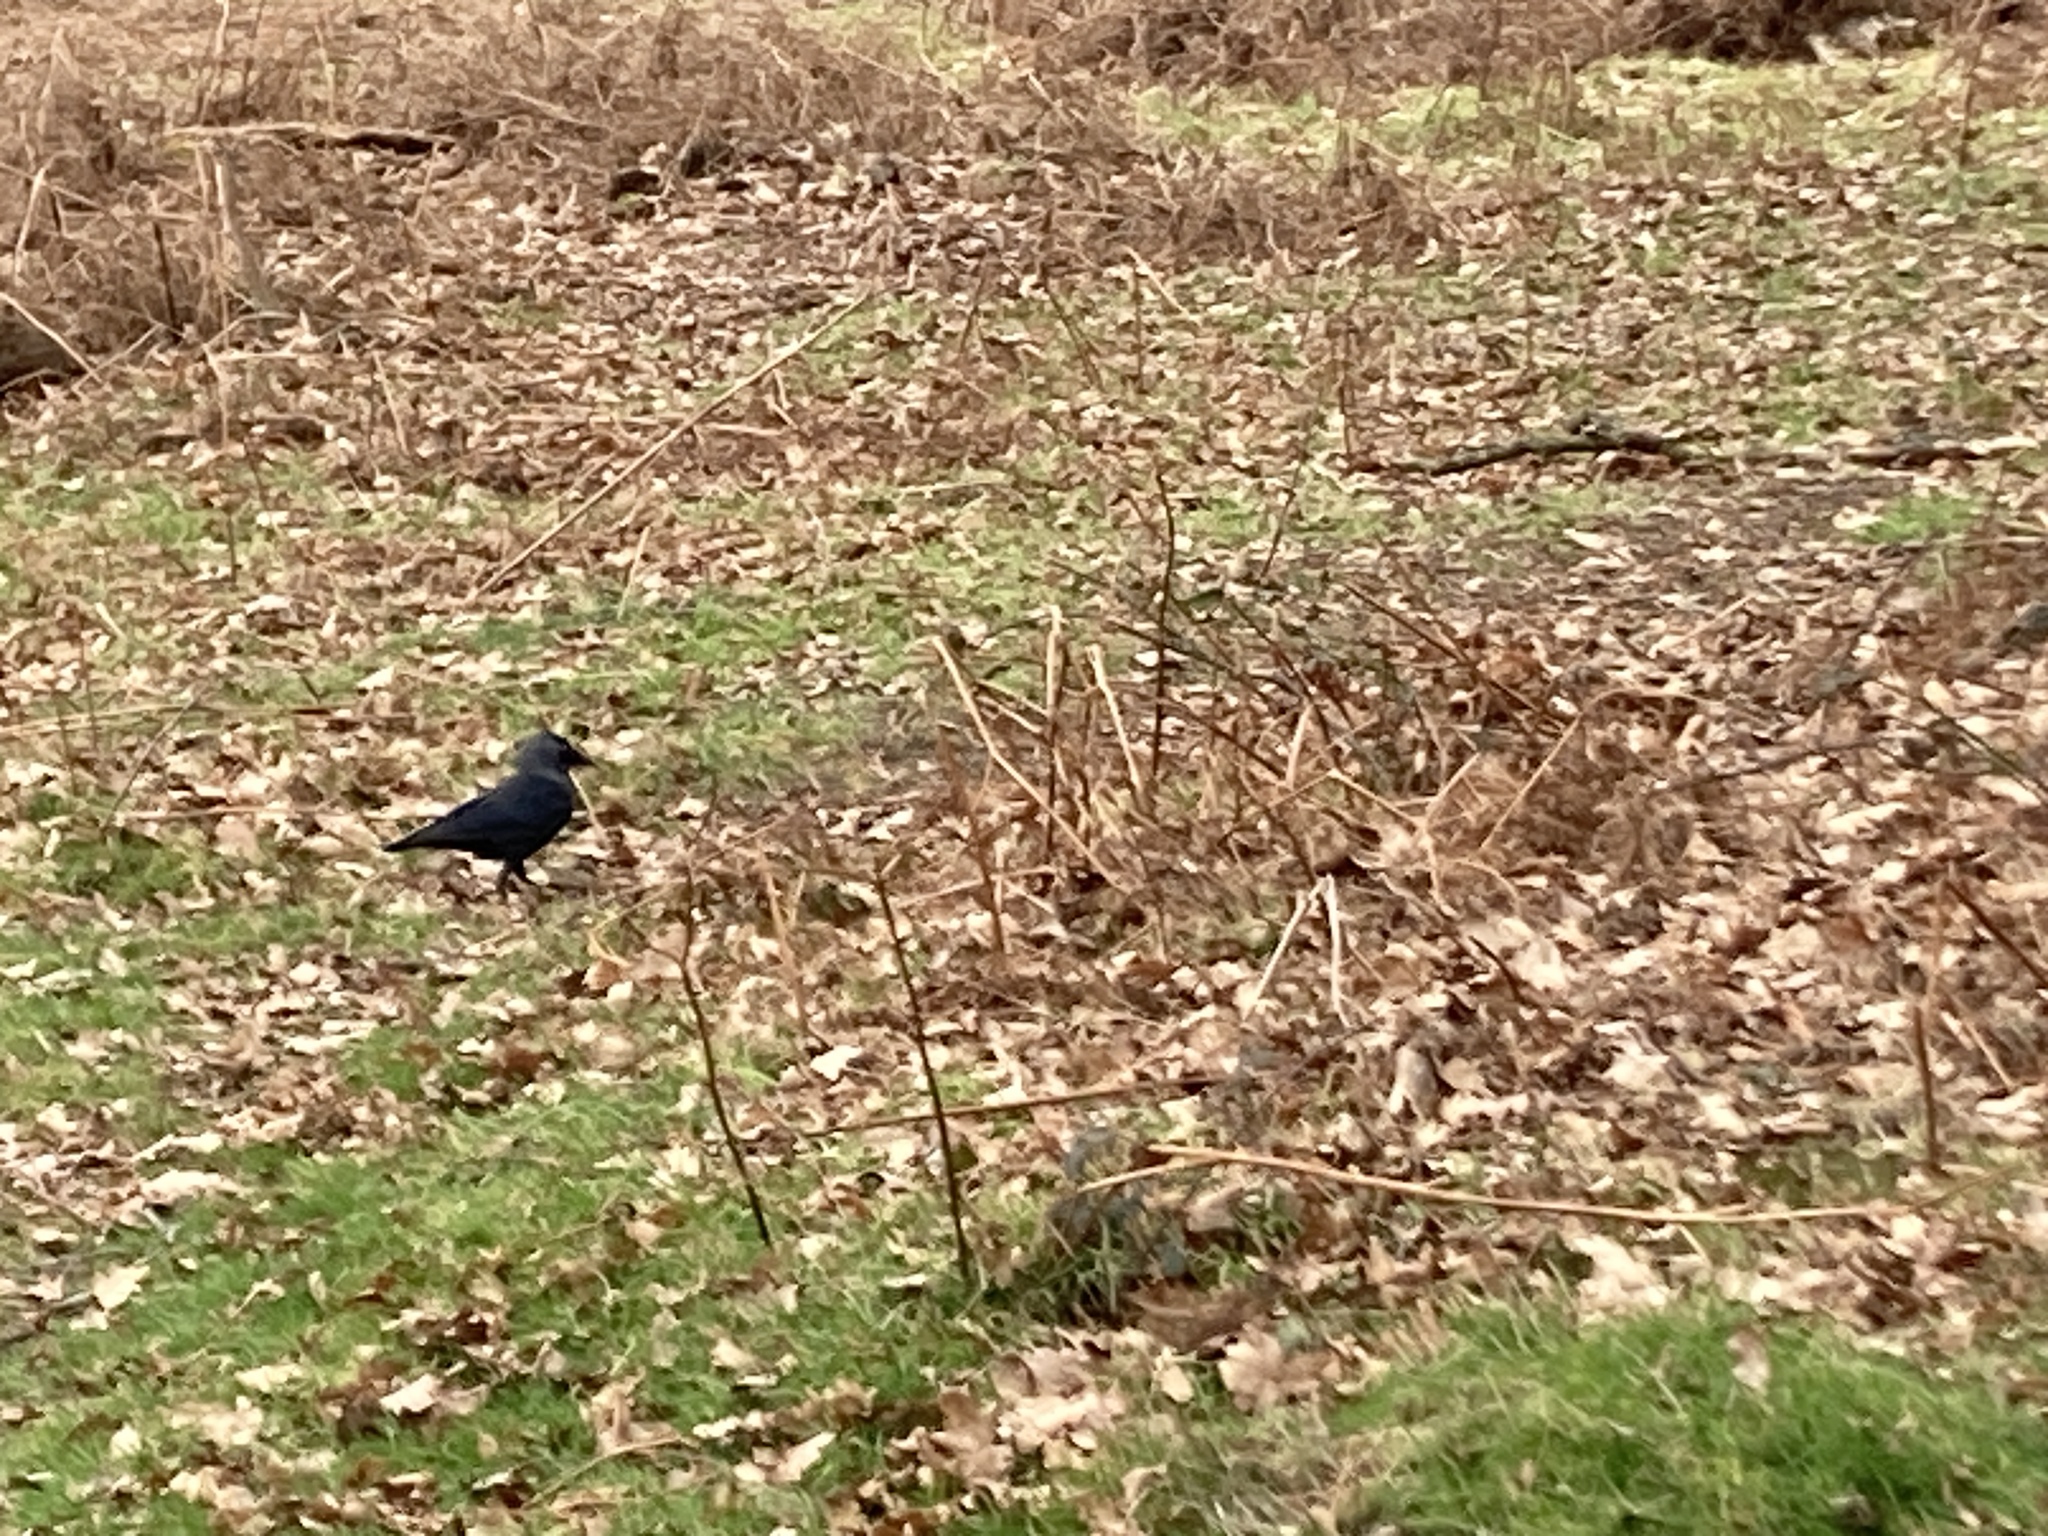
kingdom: Animalia
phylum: Chordata
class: Aves
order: Passeriformes
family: Corvidae
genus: Coloeus
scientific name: Coloeus monedula
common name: Western jackdaw
